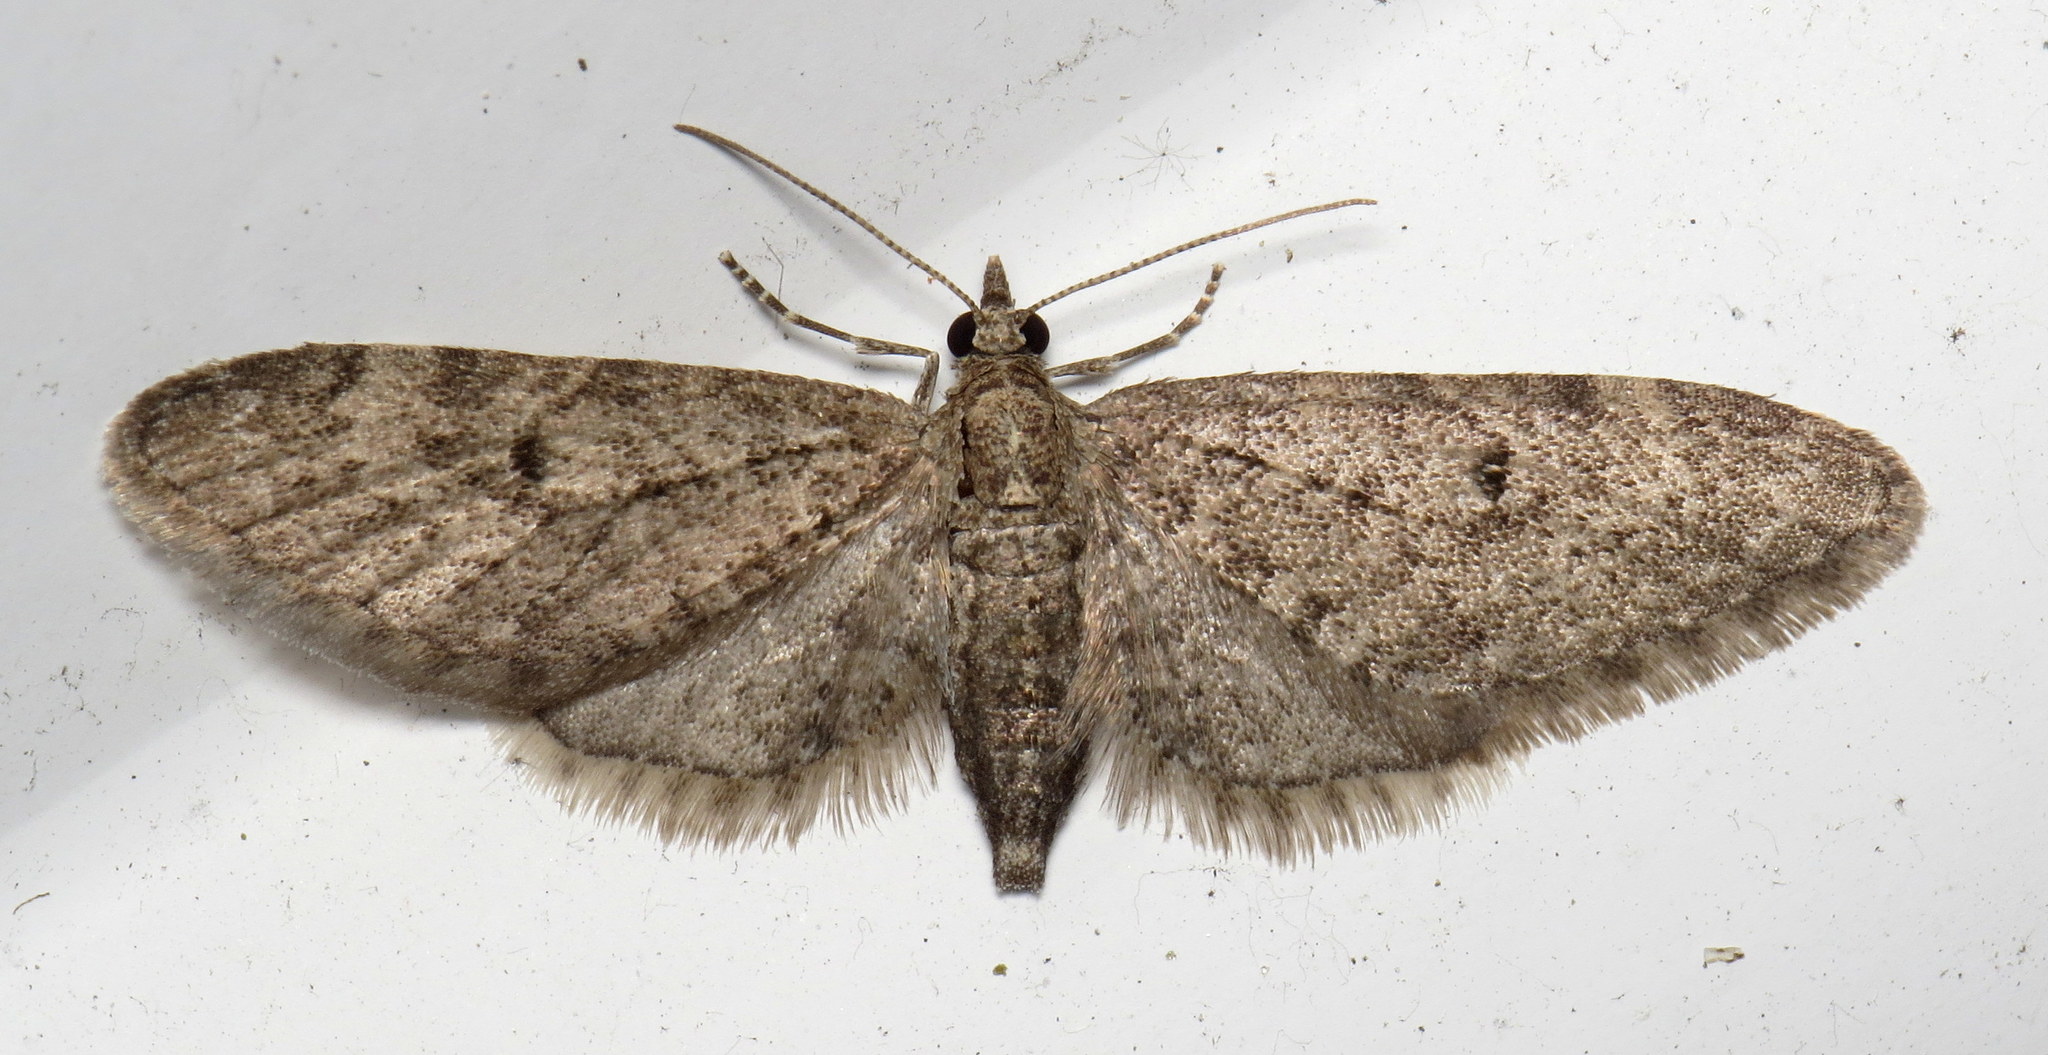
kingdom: Animalia
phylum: Arthropoda
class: Insecta
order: Lepidoptera
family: Geometridae
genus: Eupithecia
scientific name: Eupithecia
